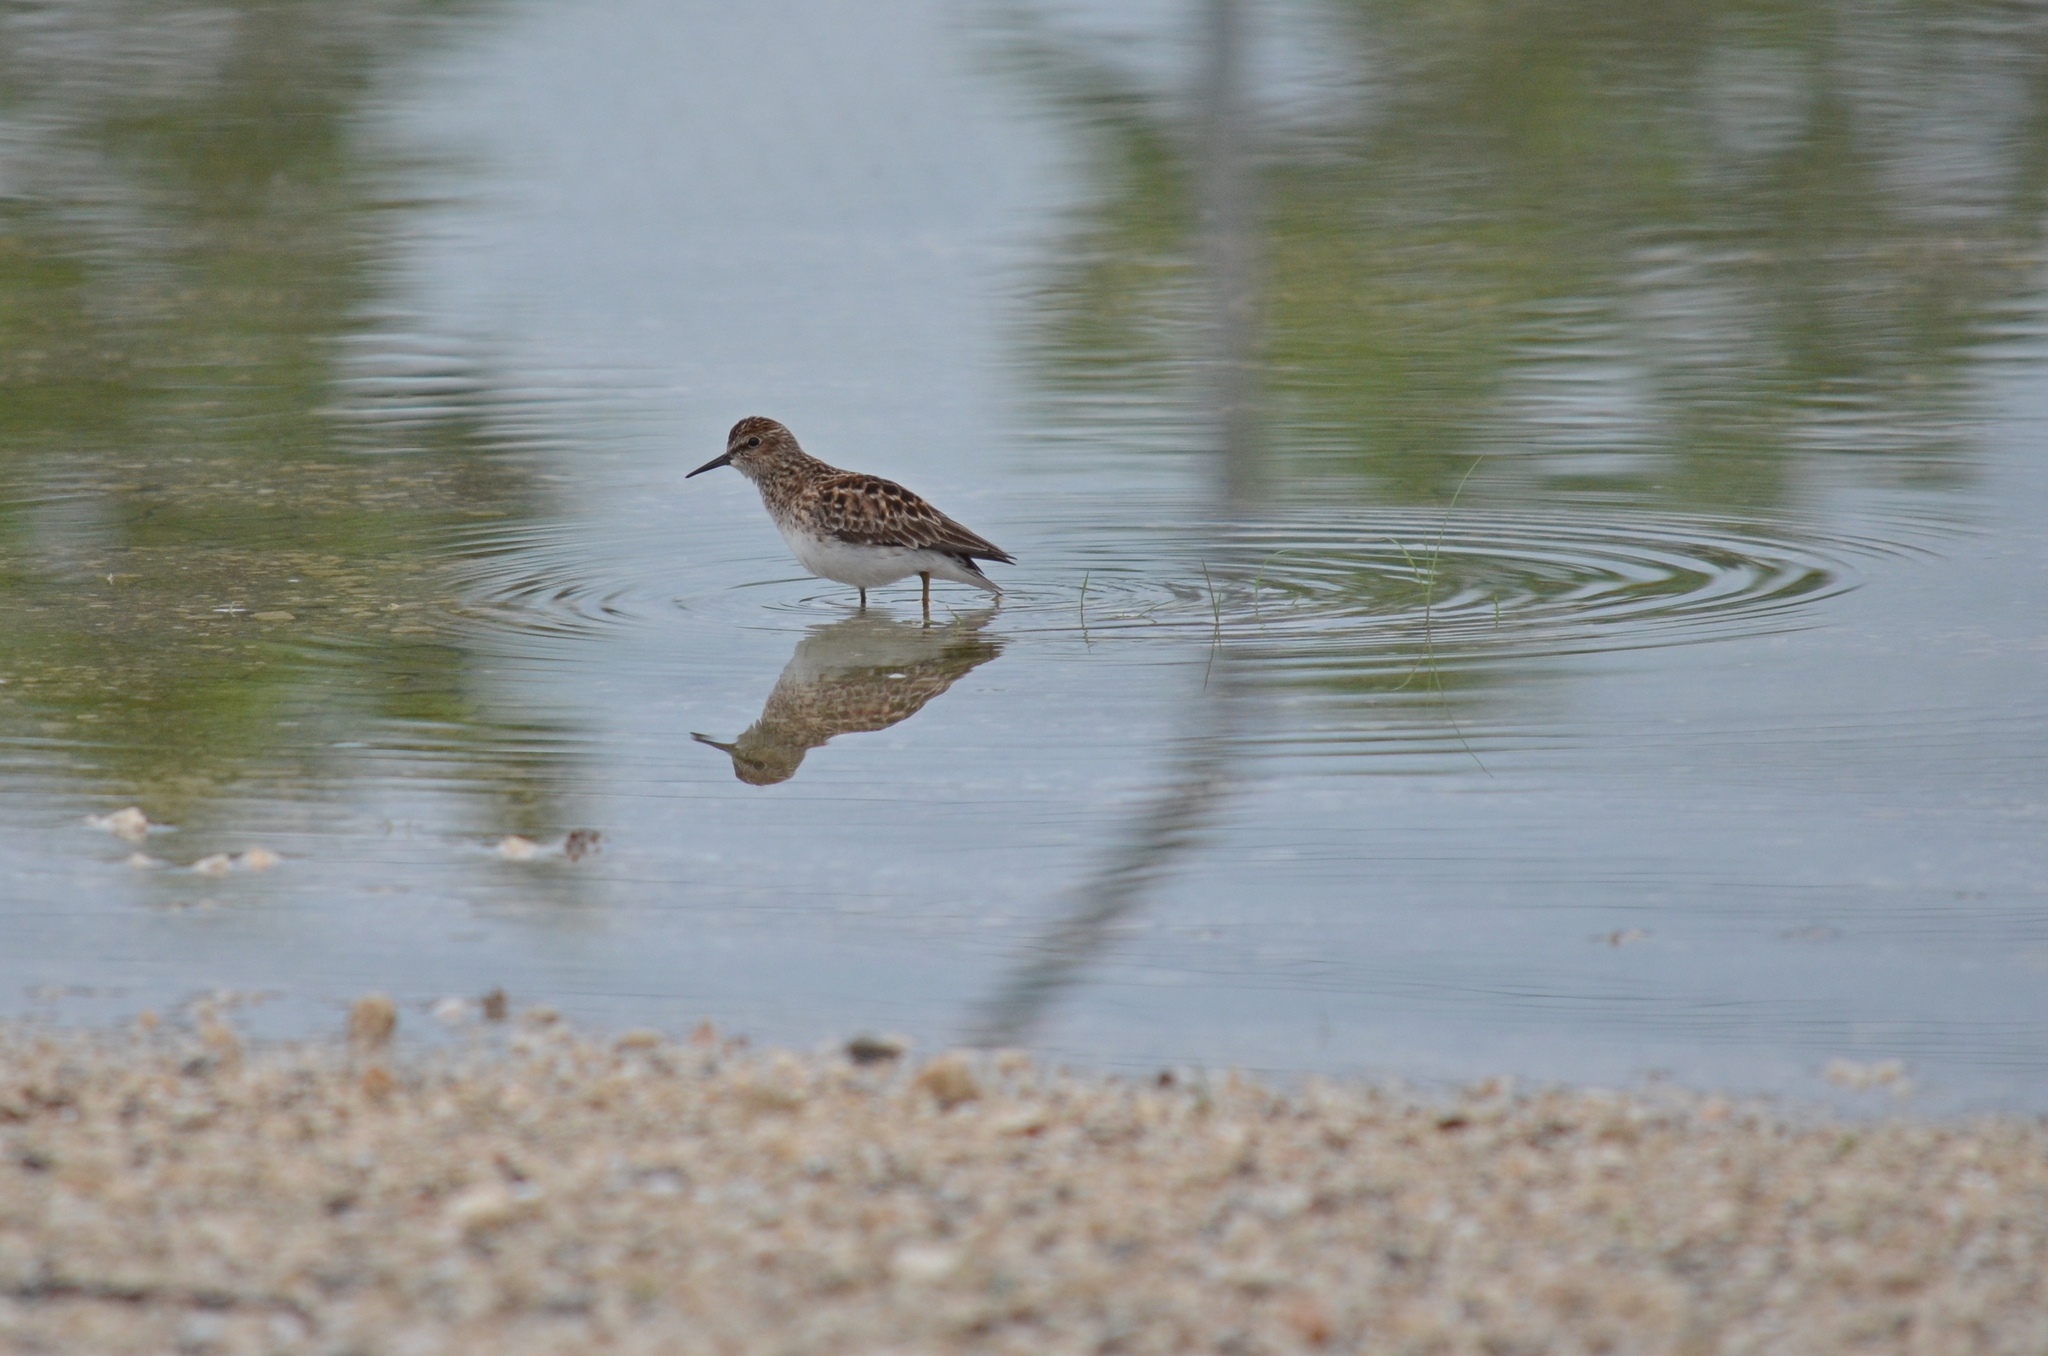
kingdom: Animalia
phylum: Chordata
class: Aves
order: Charadriiformes
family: Scolopacidae
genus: Calidris
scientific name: Calidris minutilla
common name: Least sandpiper
